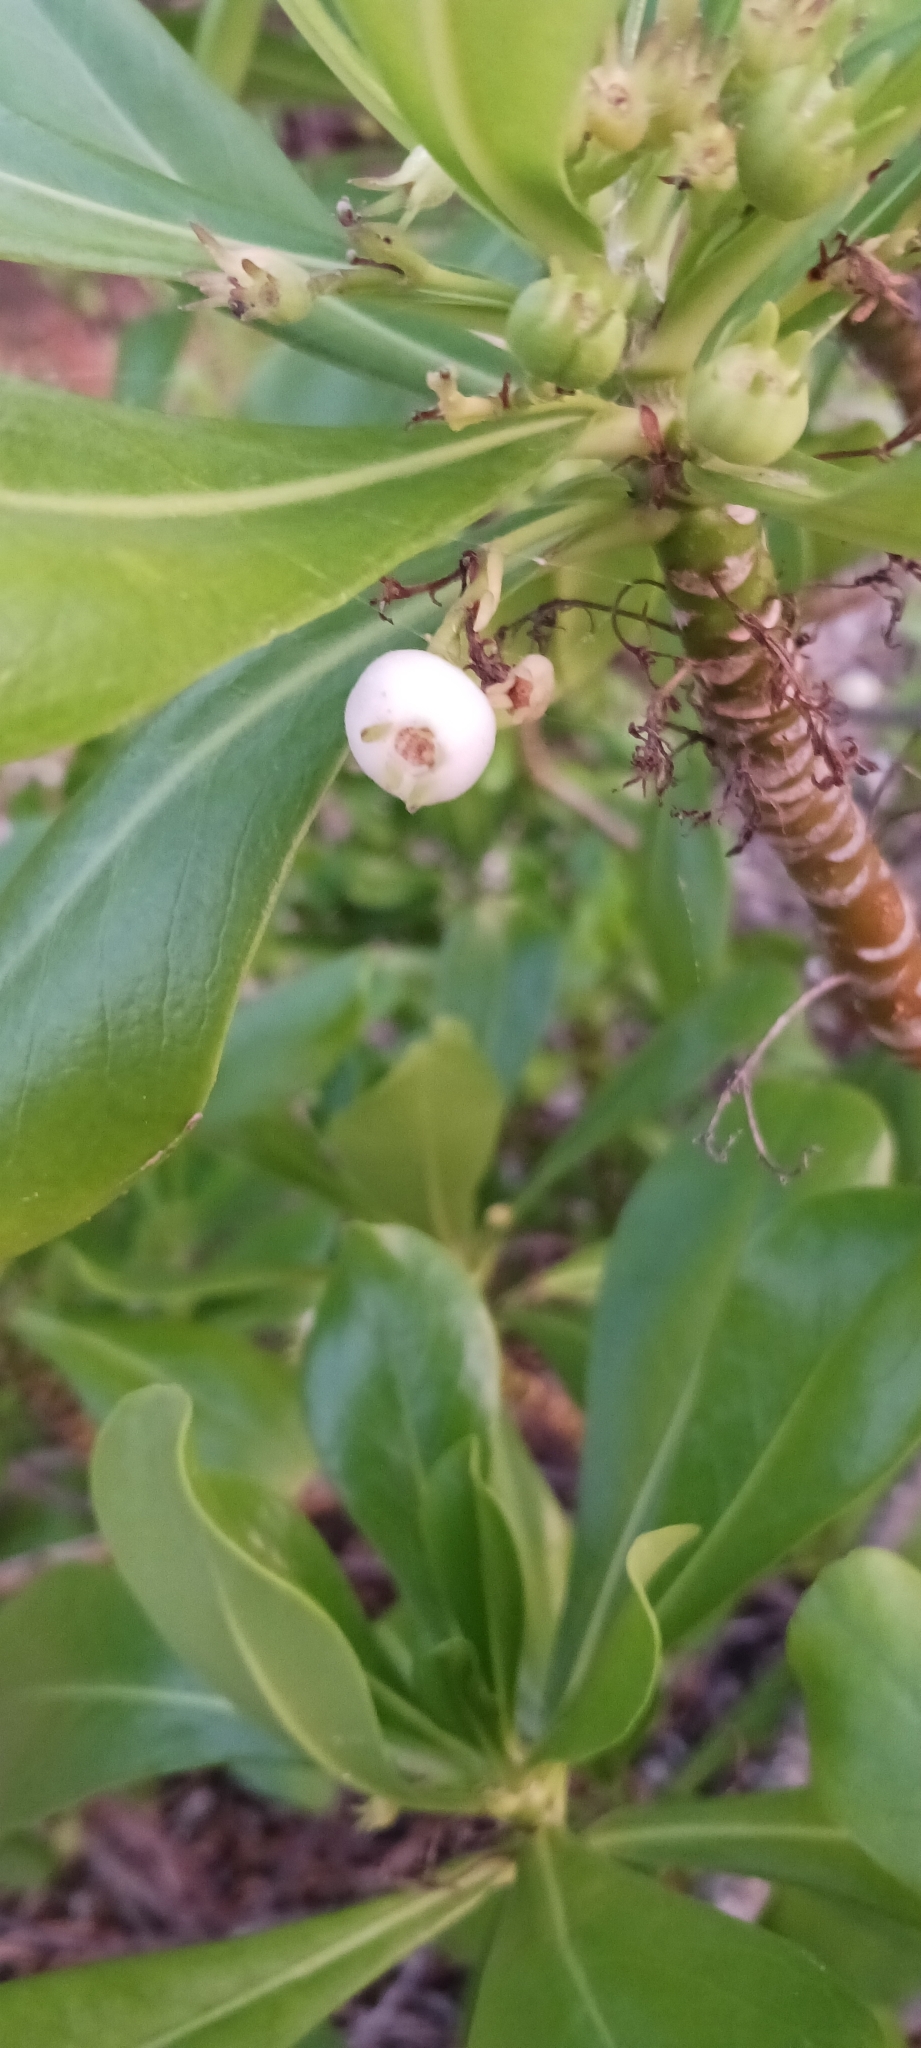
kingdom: Plantae
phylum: Tracheophyta
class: Magnoliopsida
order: Asterales
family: Goodeniaceae
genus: Scaevola
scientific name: Scaevola taccada
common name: Sea lettucetree
